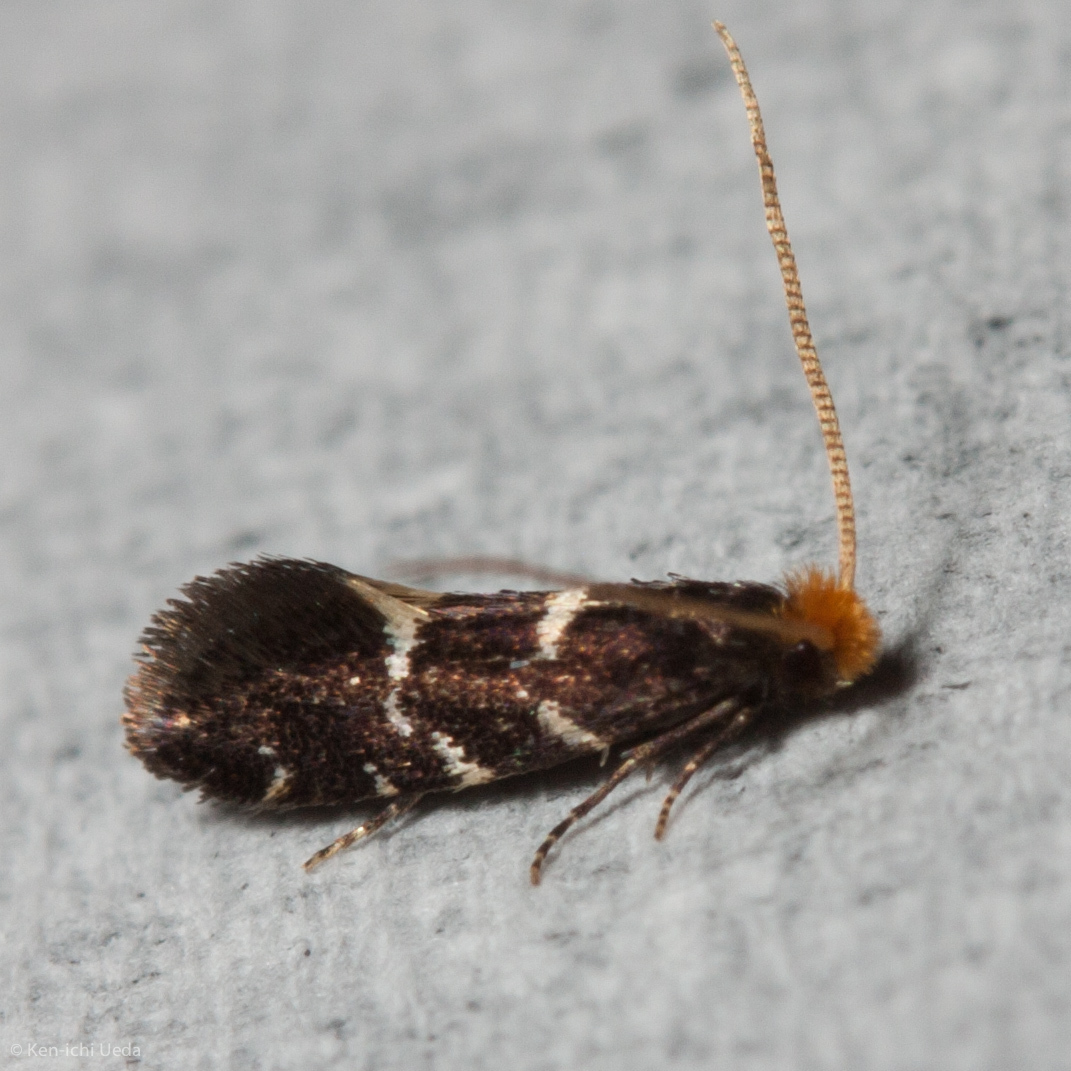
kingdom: Animalia
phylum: Arthropoda
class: Insecta
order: Lepidoptera
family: Meessiidae
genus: Eudarcia
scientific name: Eudarcia eunitariaeella
